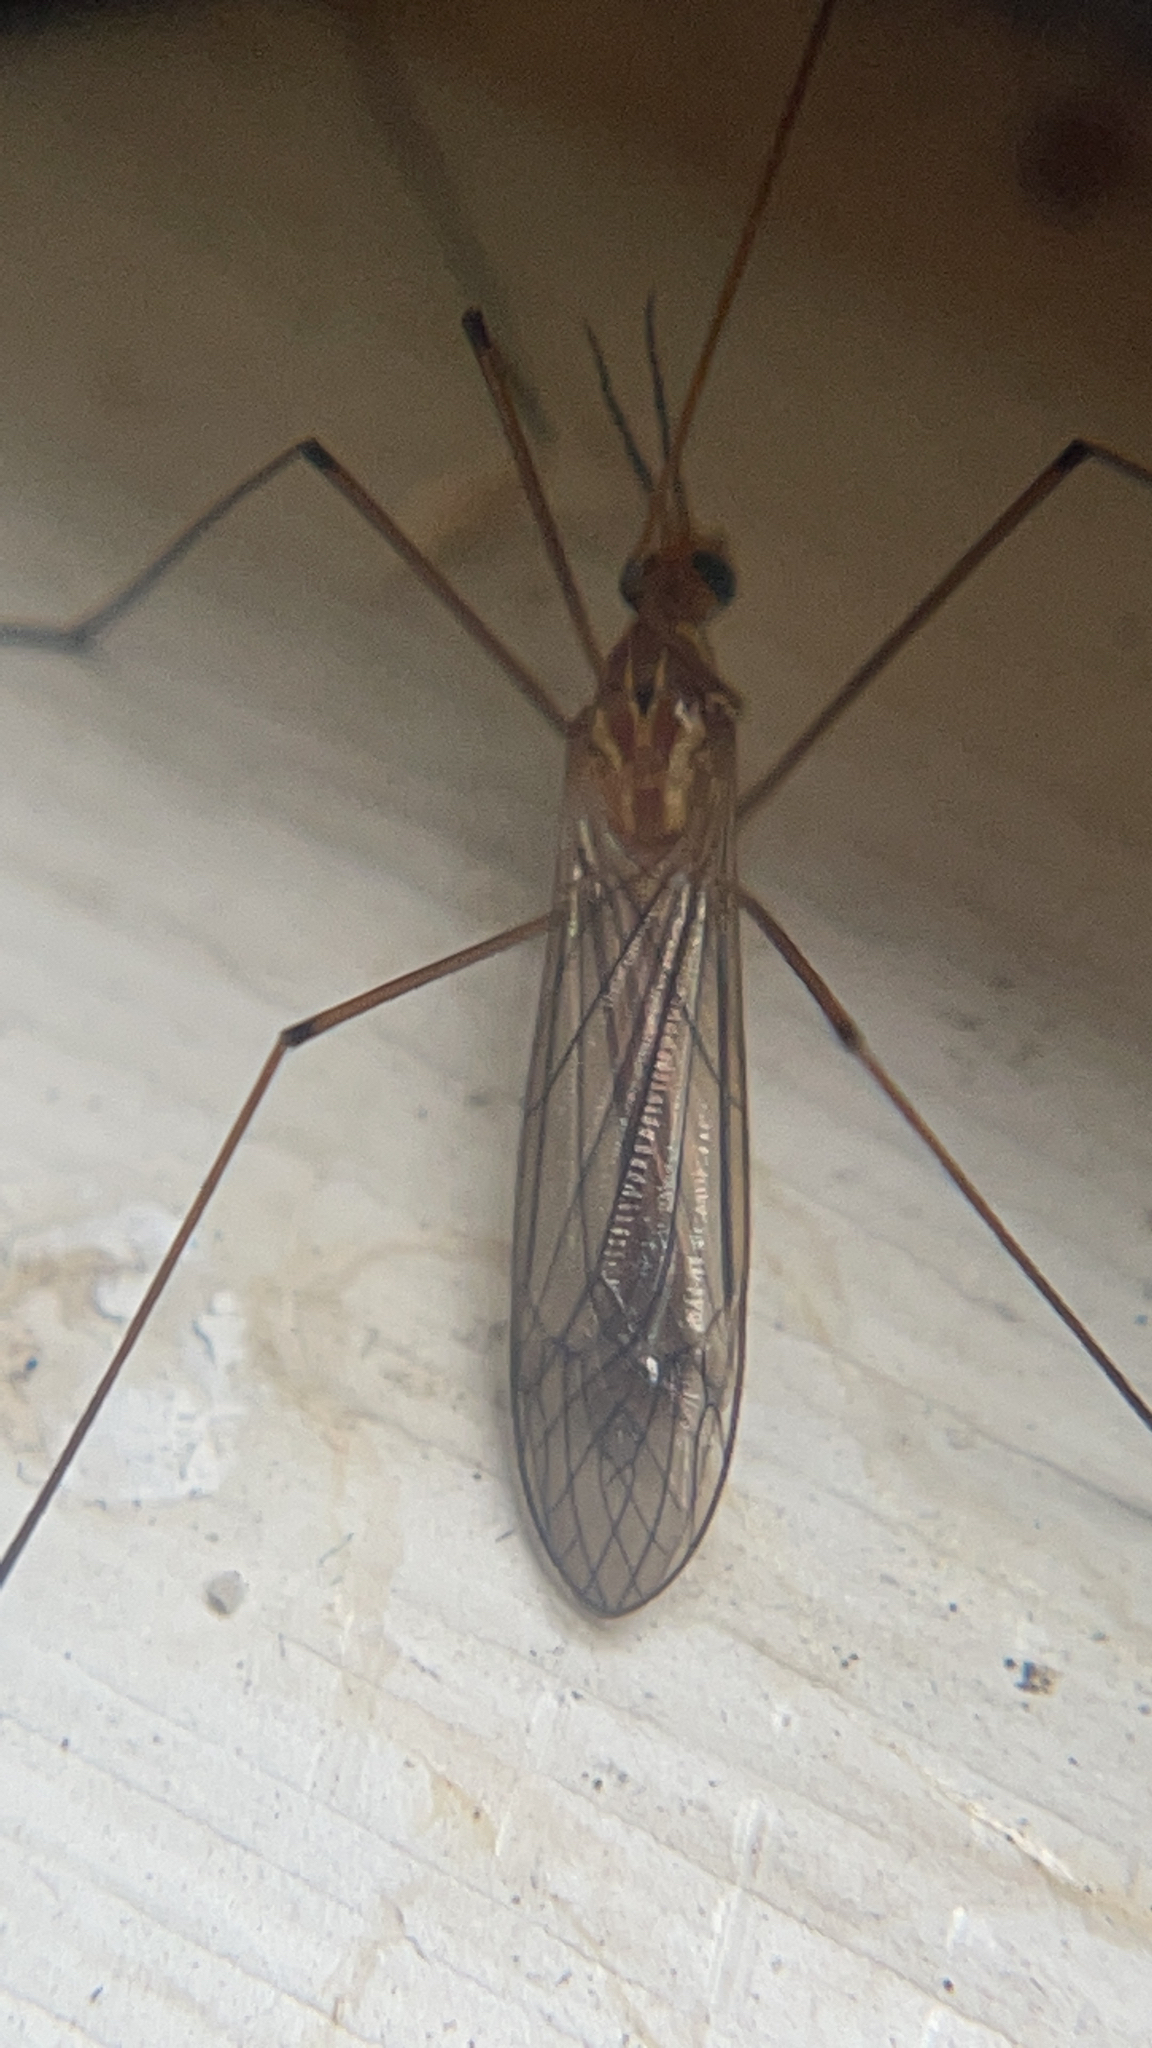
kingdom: Animalia
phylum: Arthropoda
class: Insecta
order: Diptera
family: Tipulidae
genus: Nephrotoma
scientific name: Nephrotoma
